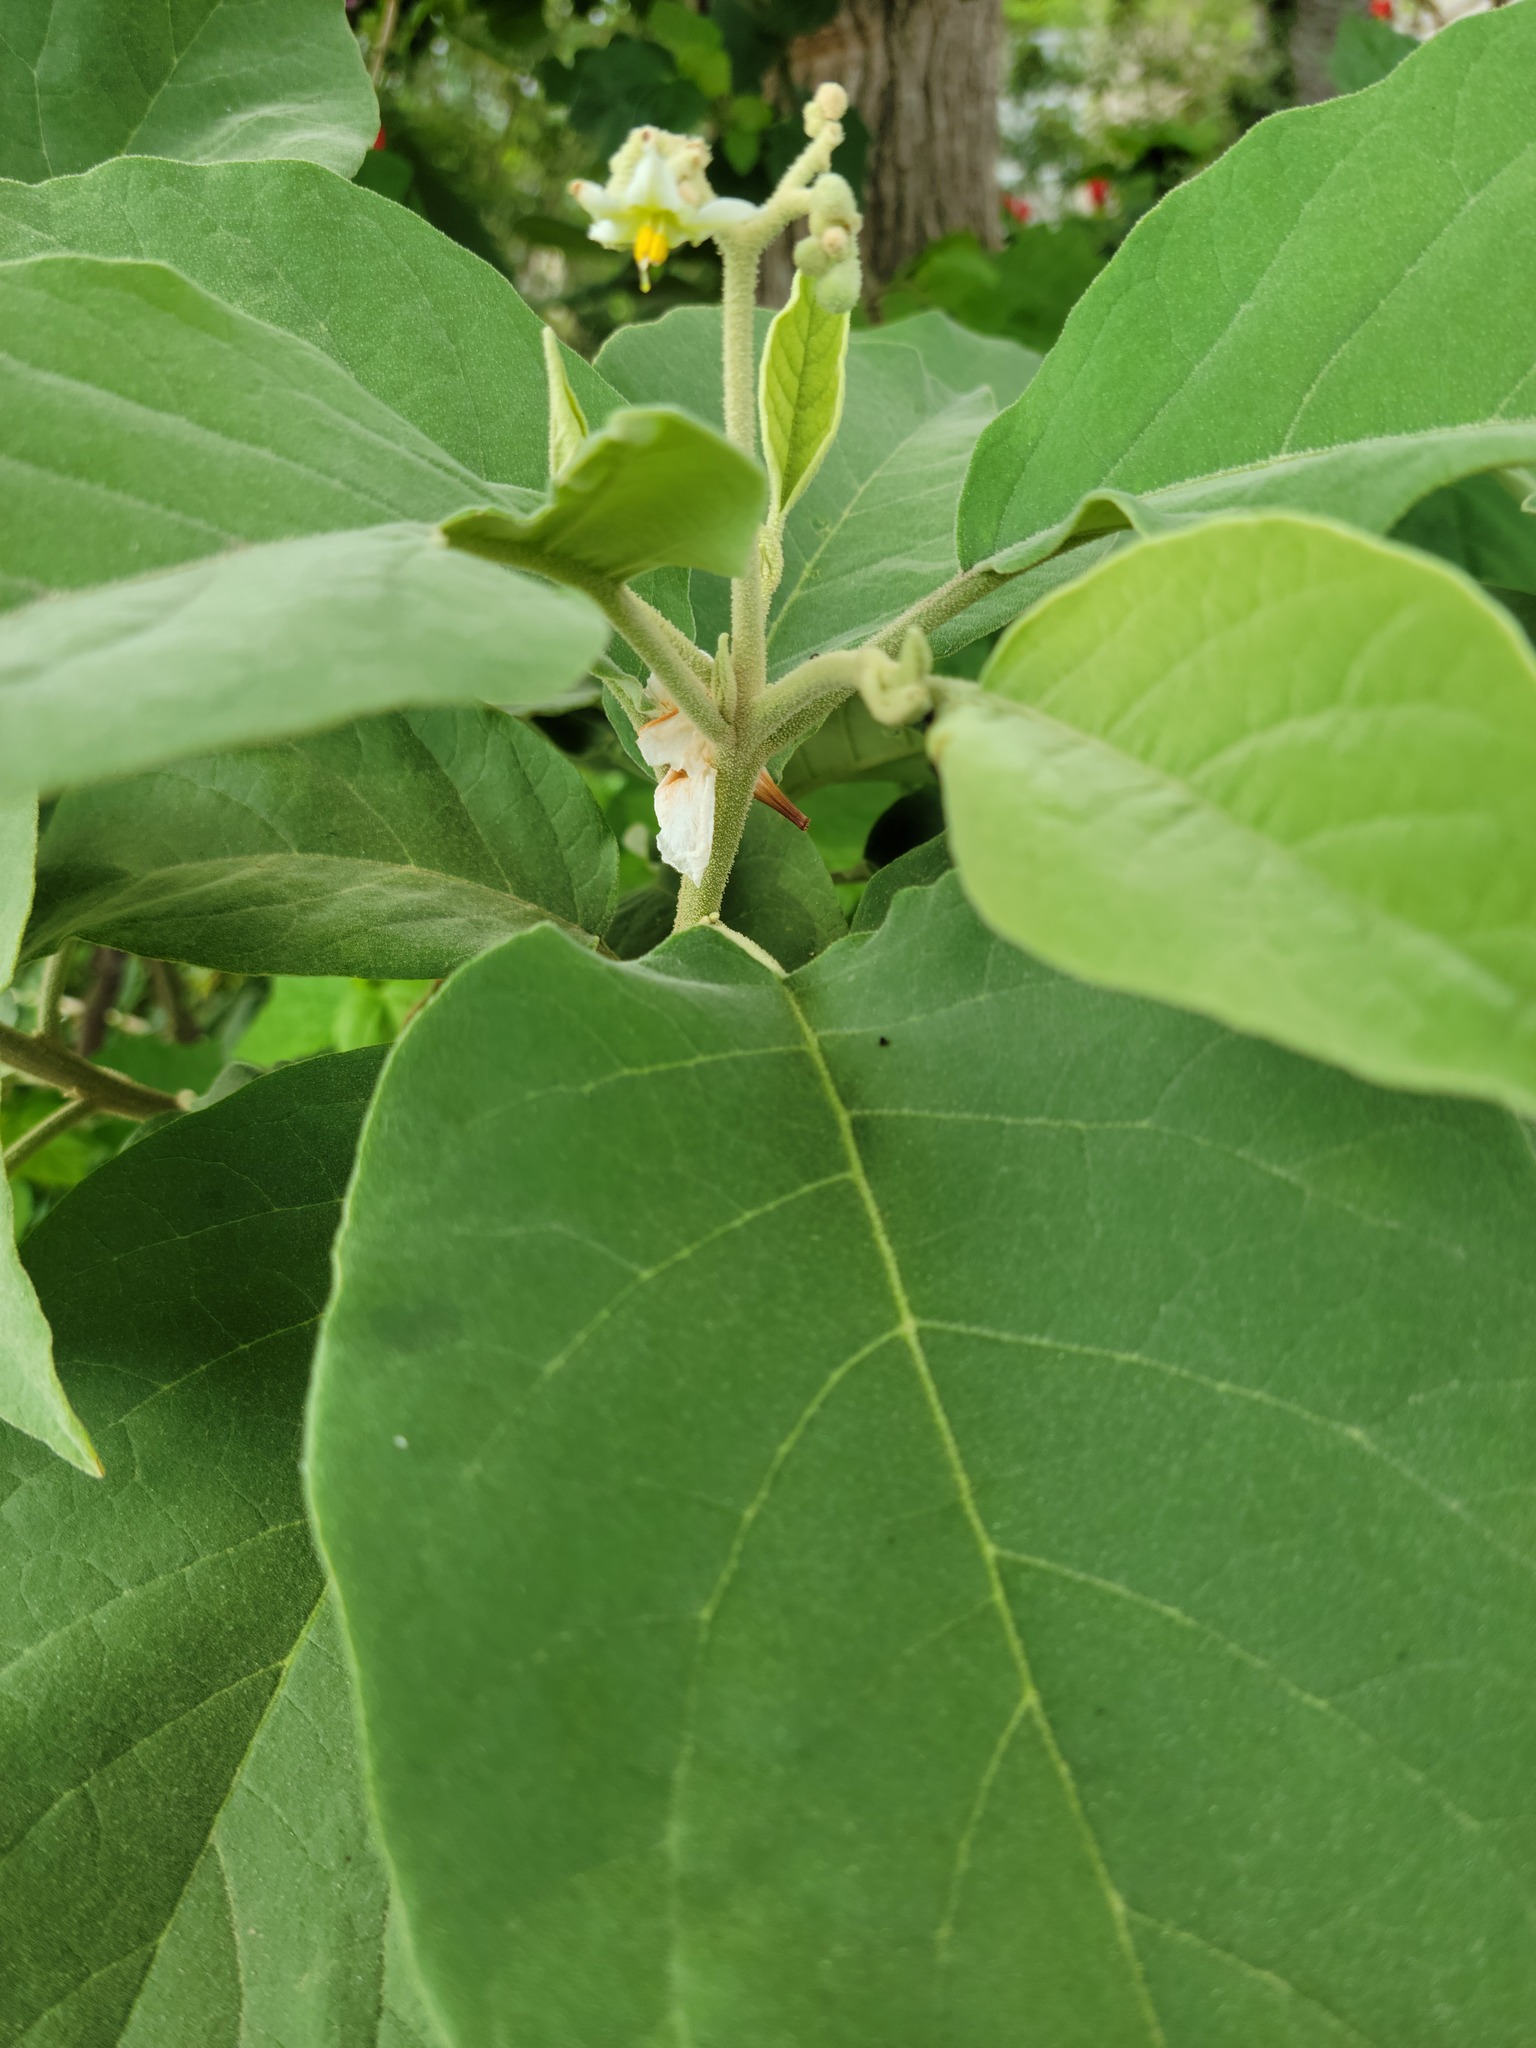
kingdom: Plantae
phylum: Tracheophyta
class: Magnoliopsida
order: Solanales
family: Solanaceae
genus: Solanum
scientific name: Solanum erianthum
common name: Tobacco-tree
